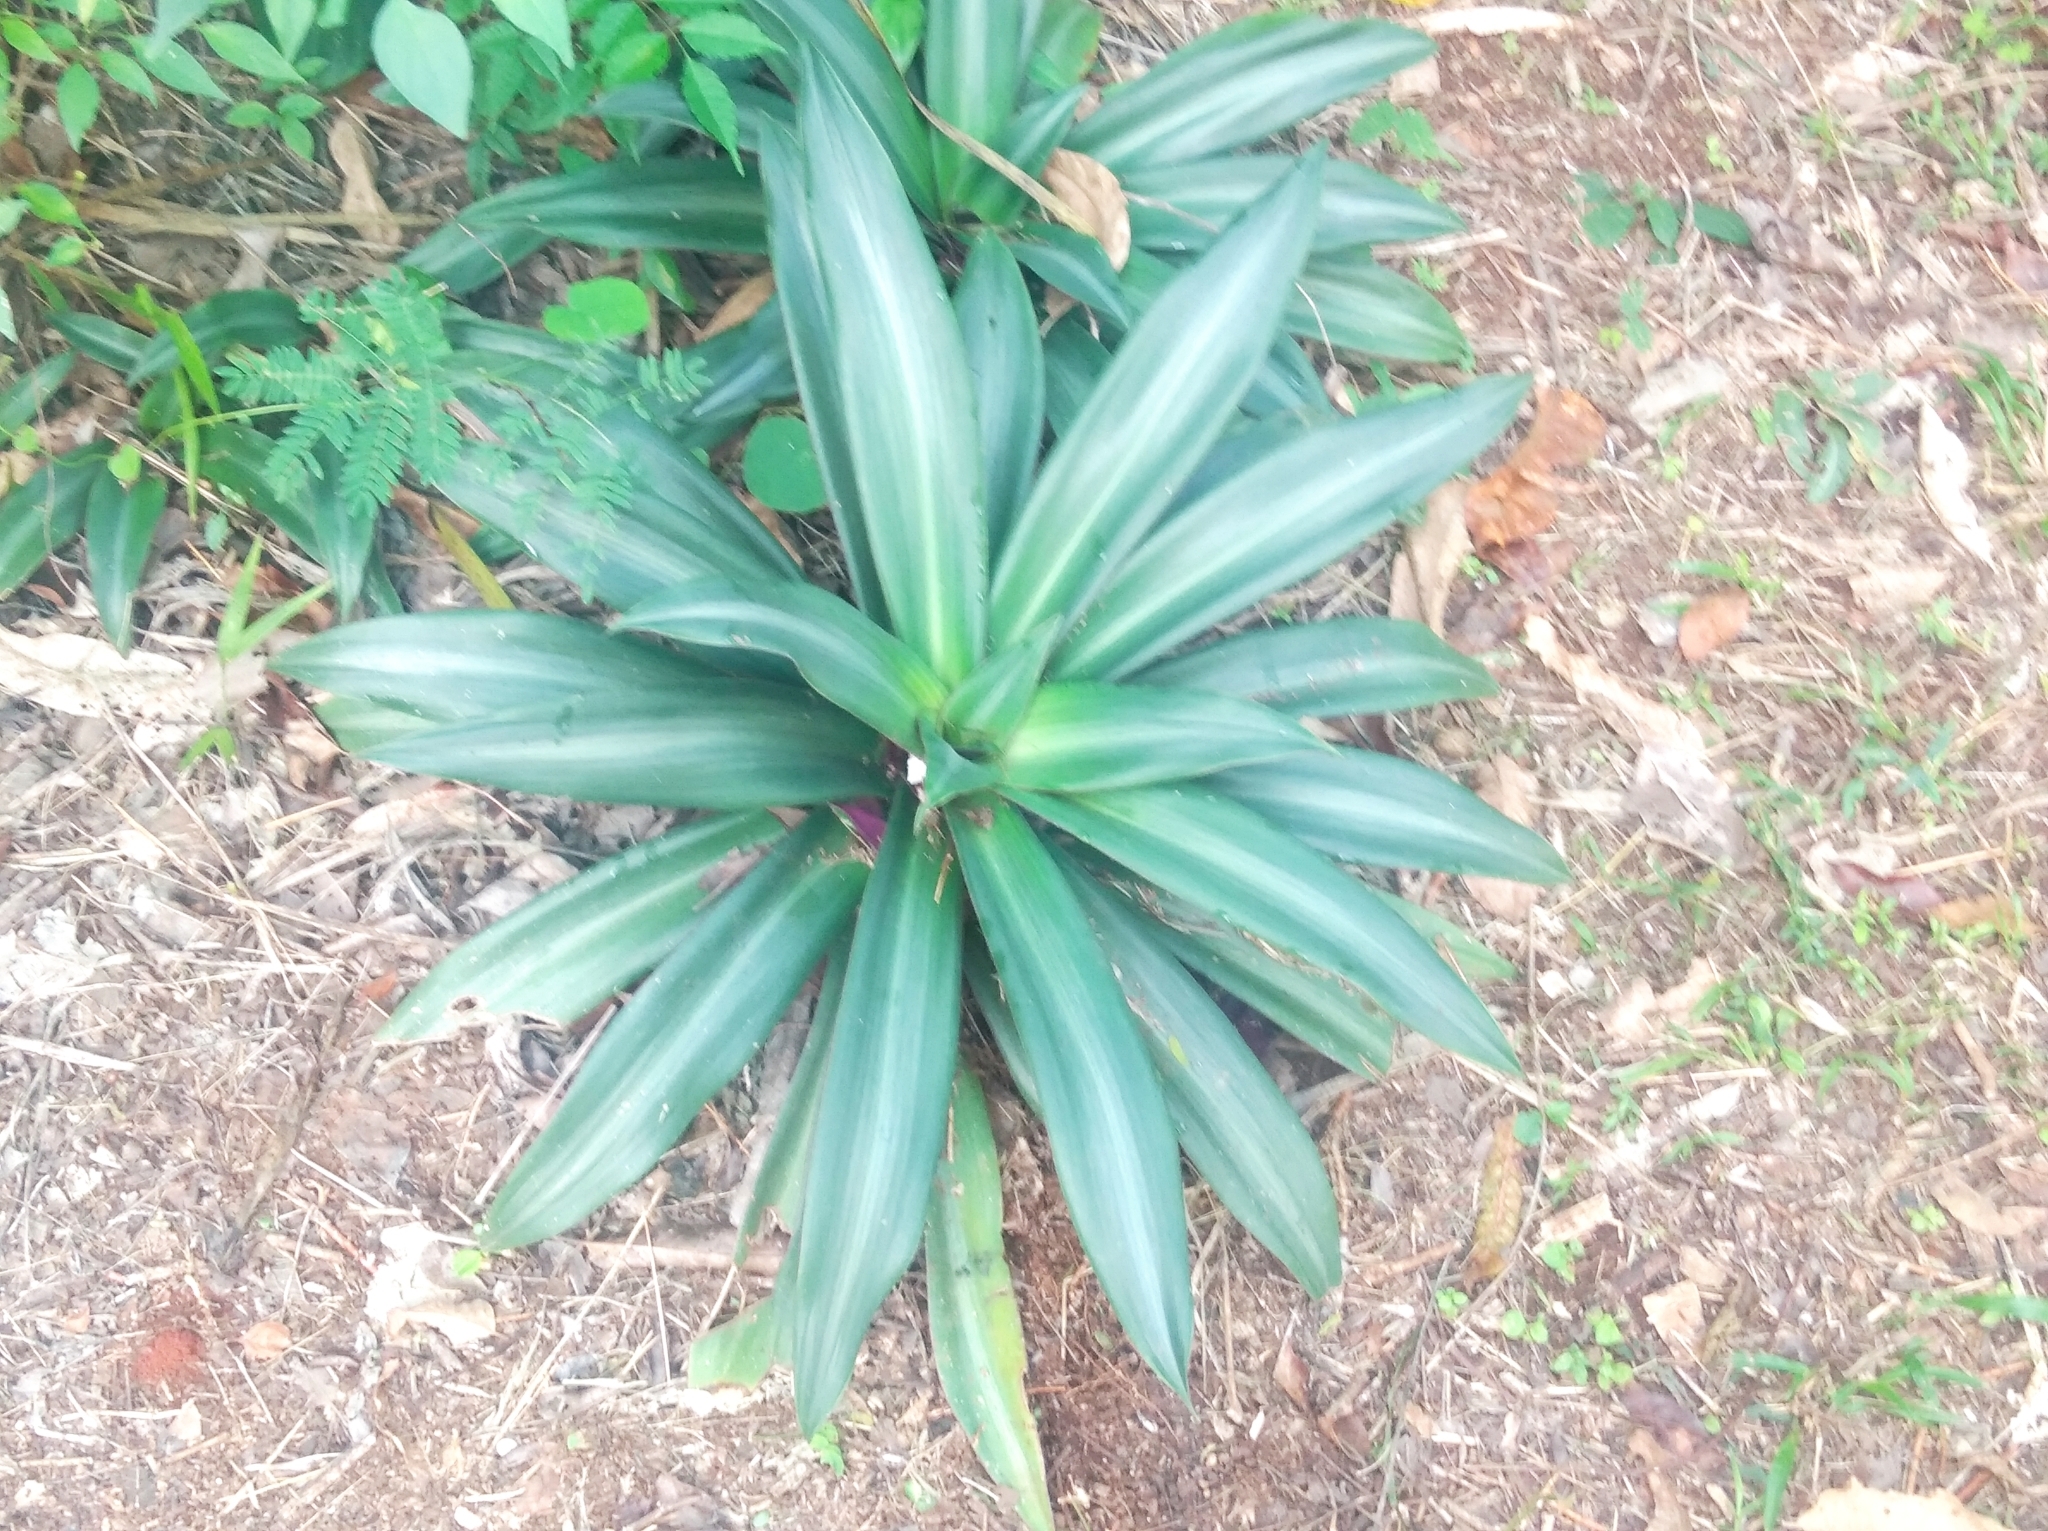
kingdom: Plantae
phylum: Tracheophyta
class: Liliopsida
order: Commelinales
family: Commelinaceae
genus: Tradescantia
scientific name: Tradescantia spathacea
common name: Boatlily
